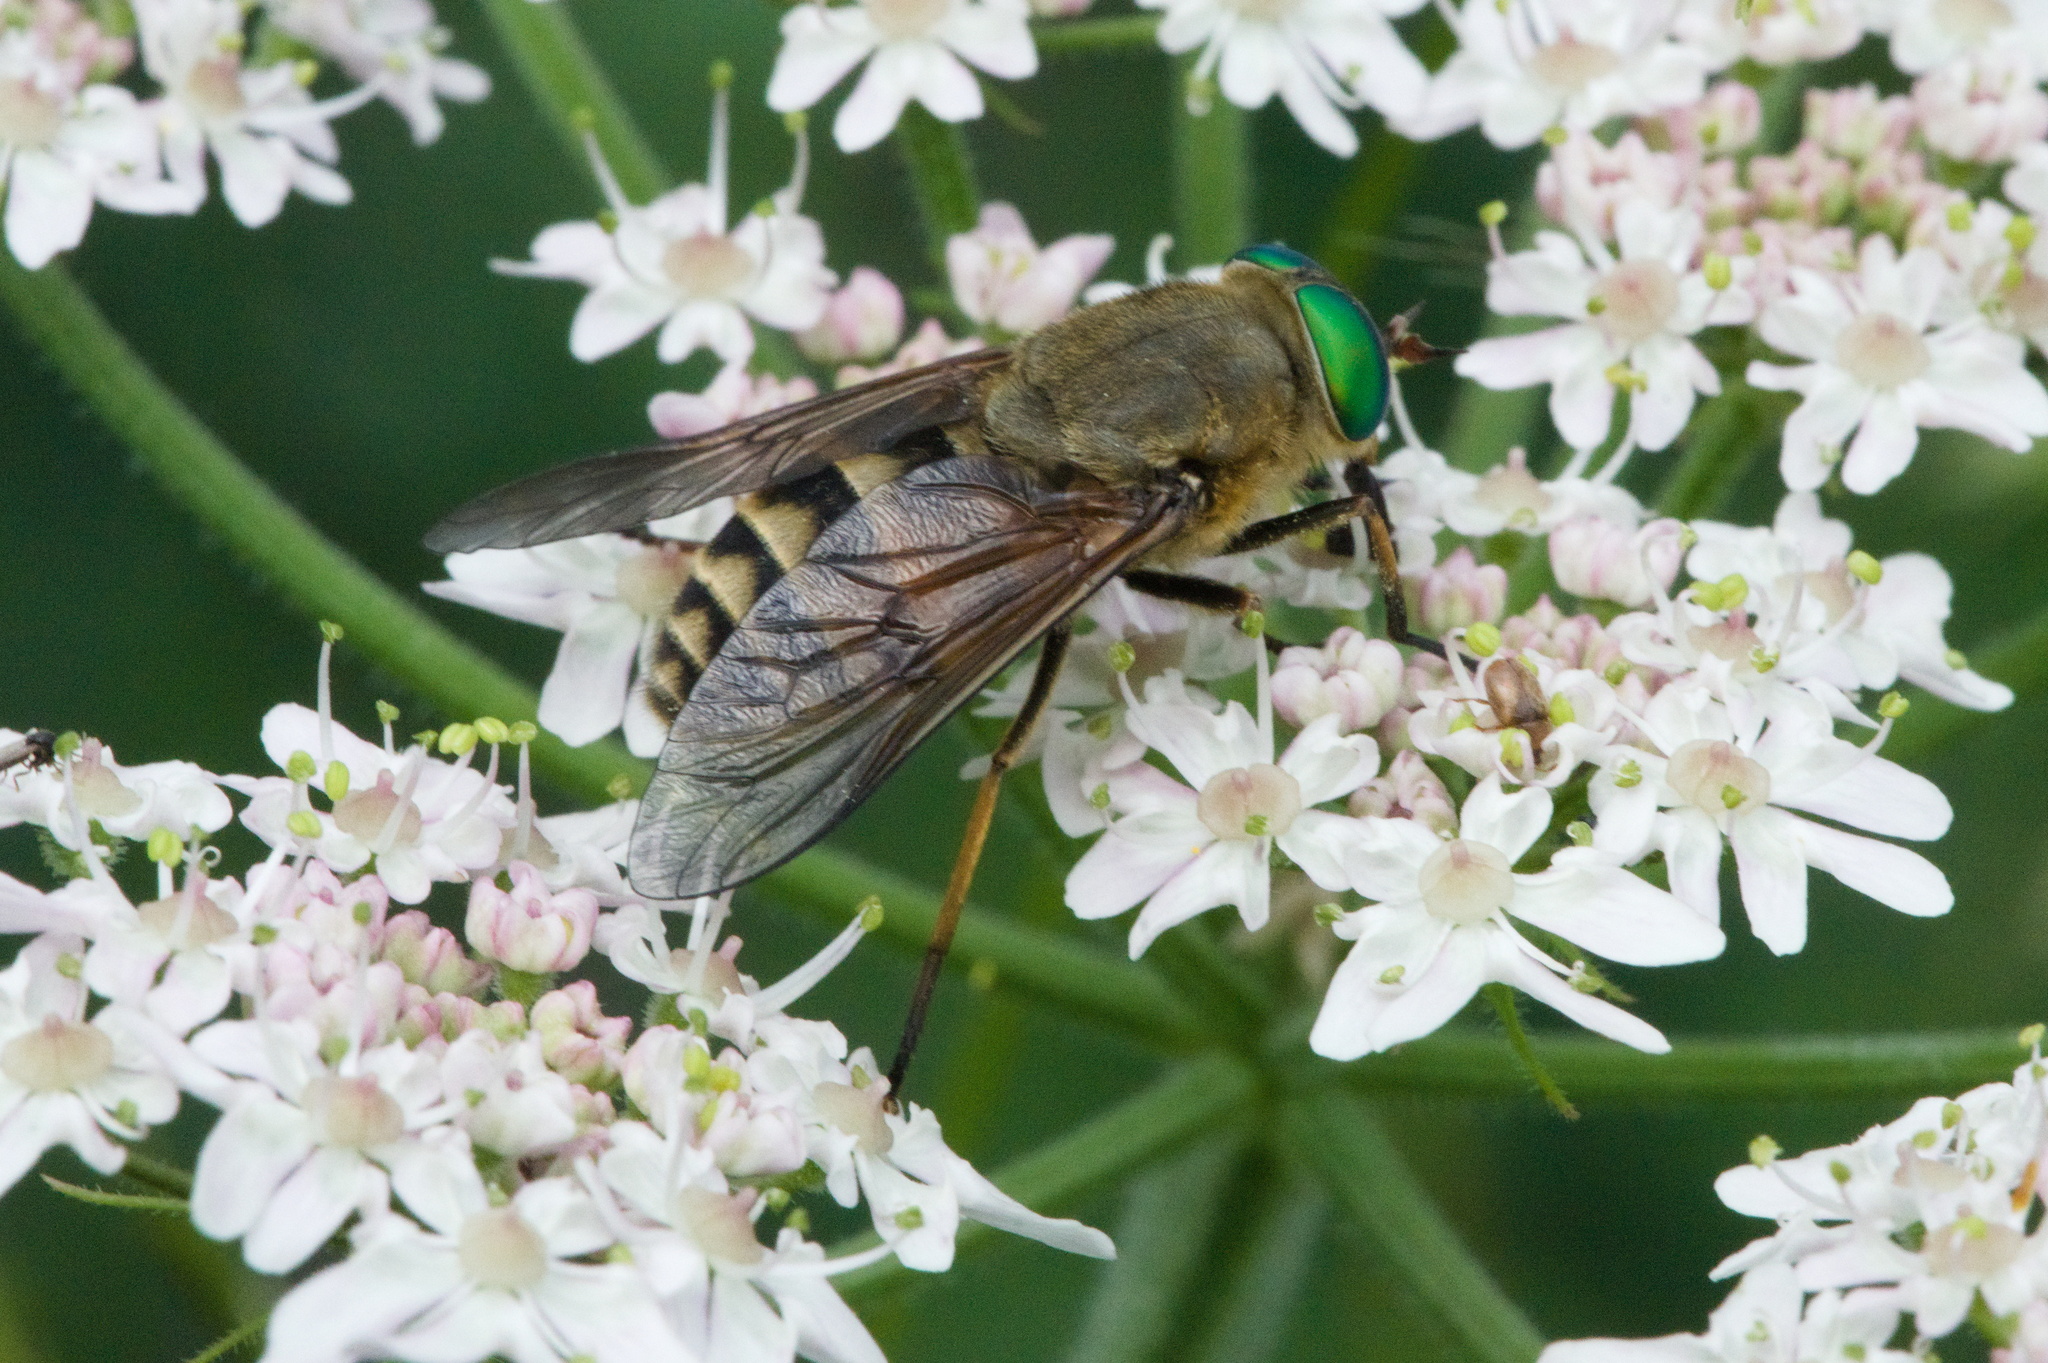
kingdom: Animalia
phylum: Arthropoda
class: Insecta
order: Diptera
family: Tabanidae
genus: Philipomyia
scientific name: Philipomyia aprica
